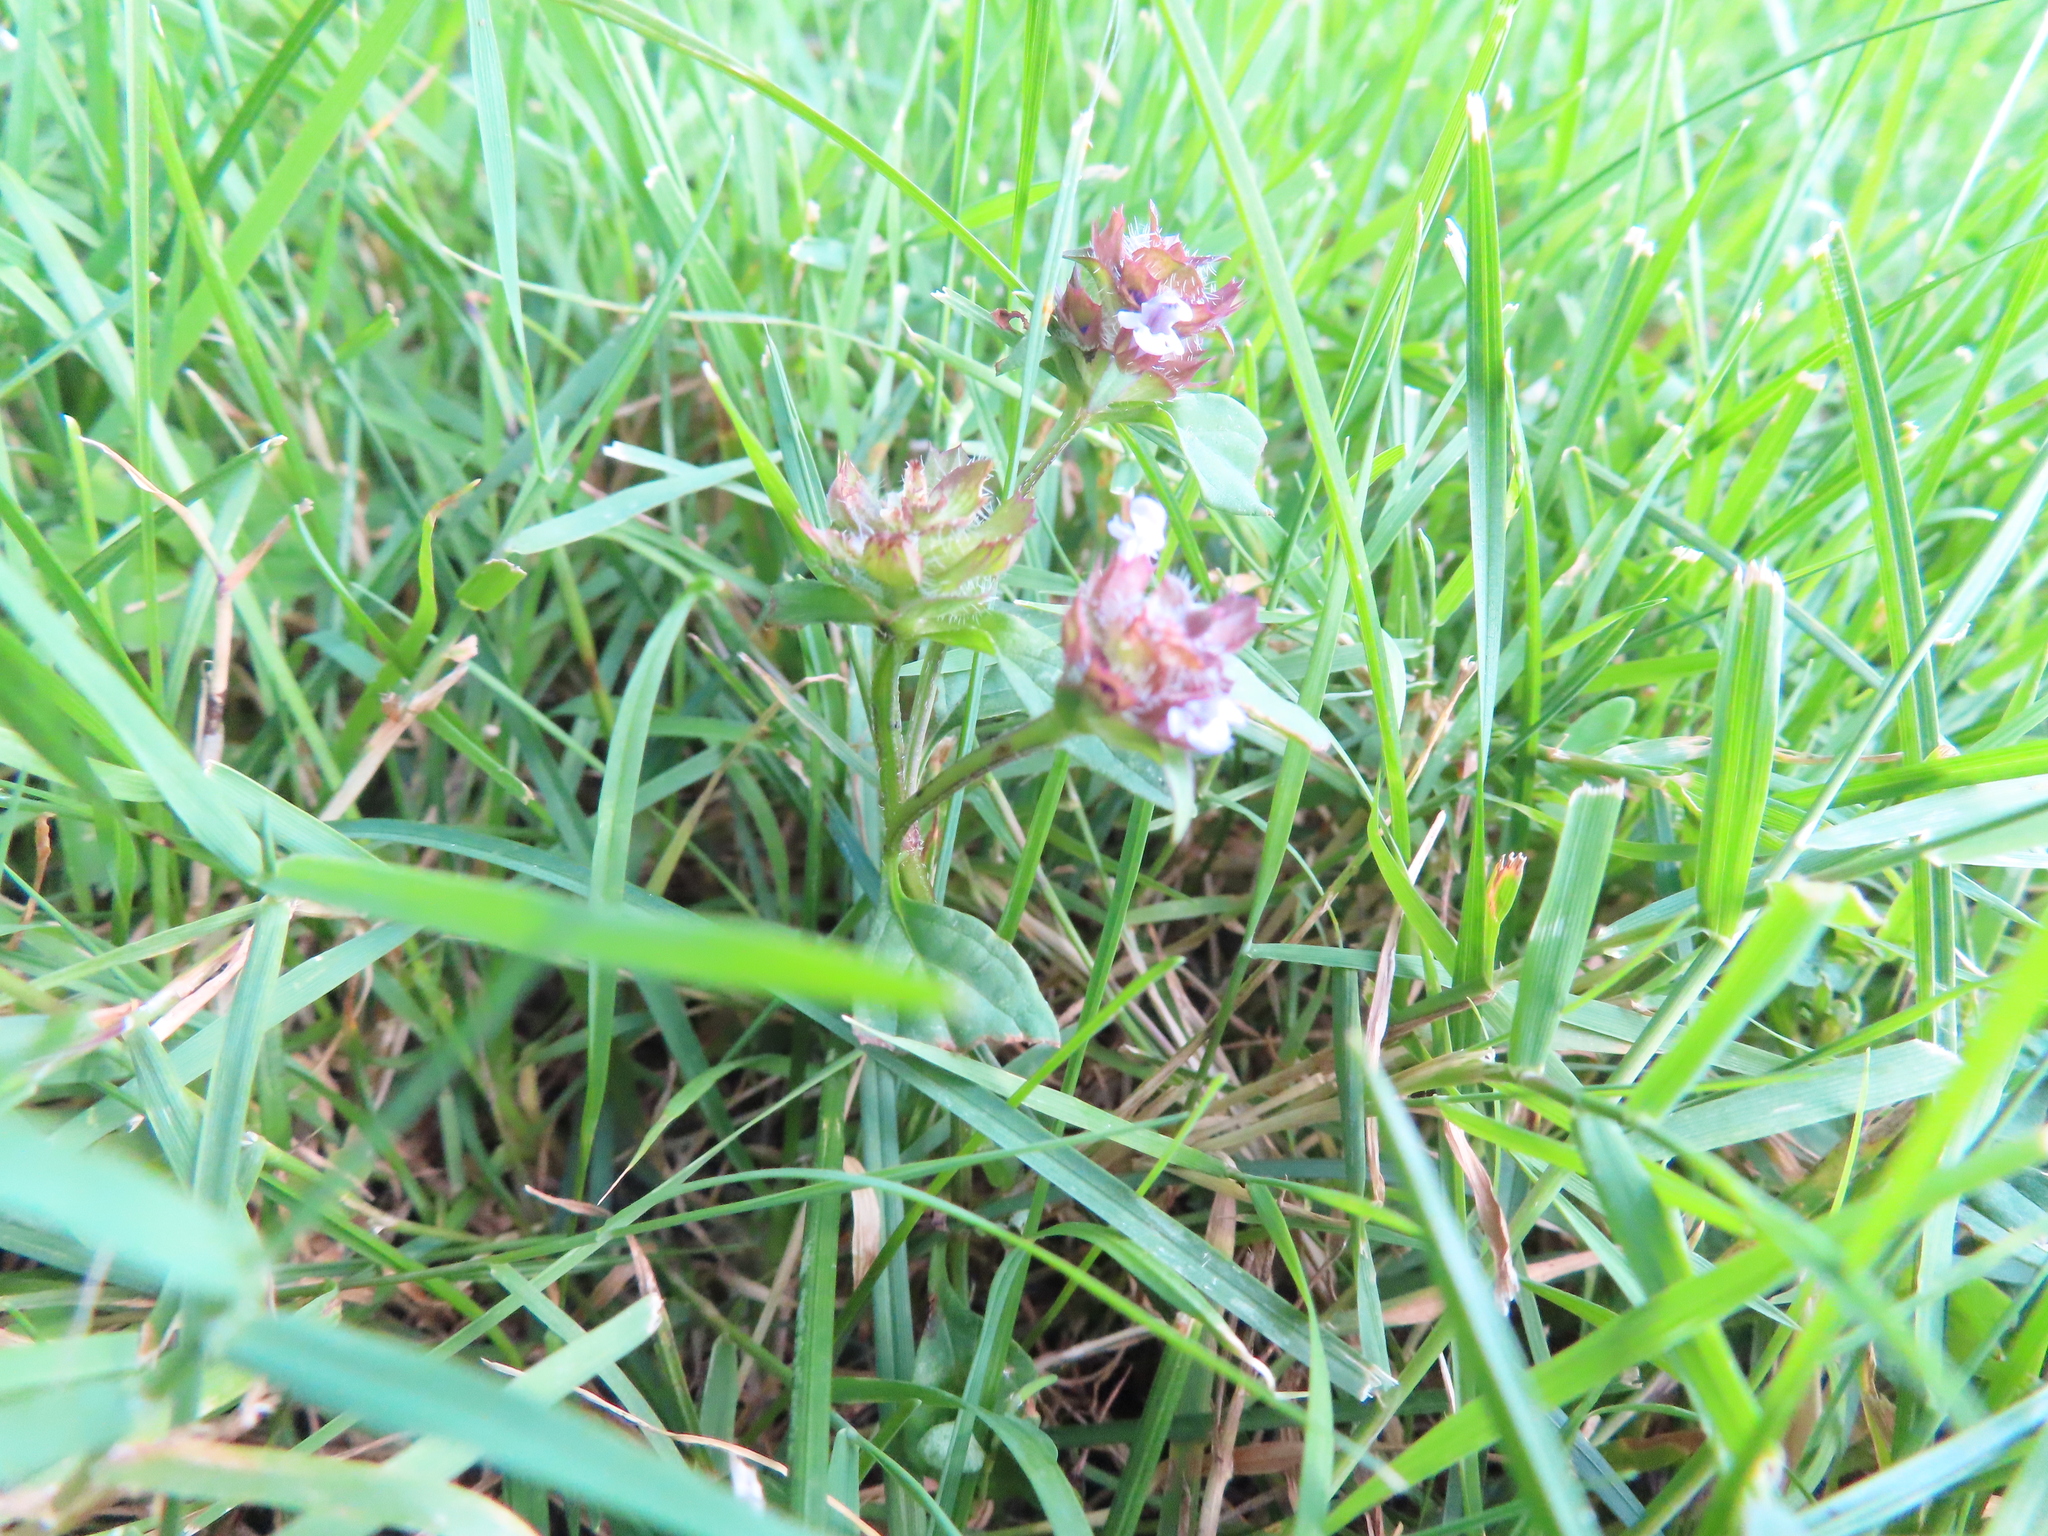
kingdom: Plantae
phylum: Tracheophyta
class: Magnoliopsida
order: Lamiales
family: Lamiaceae
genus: Prunella
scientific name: Prunella vulgaris
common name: Heal-all
